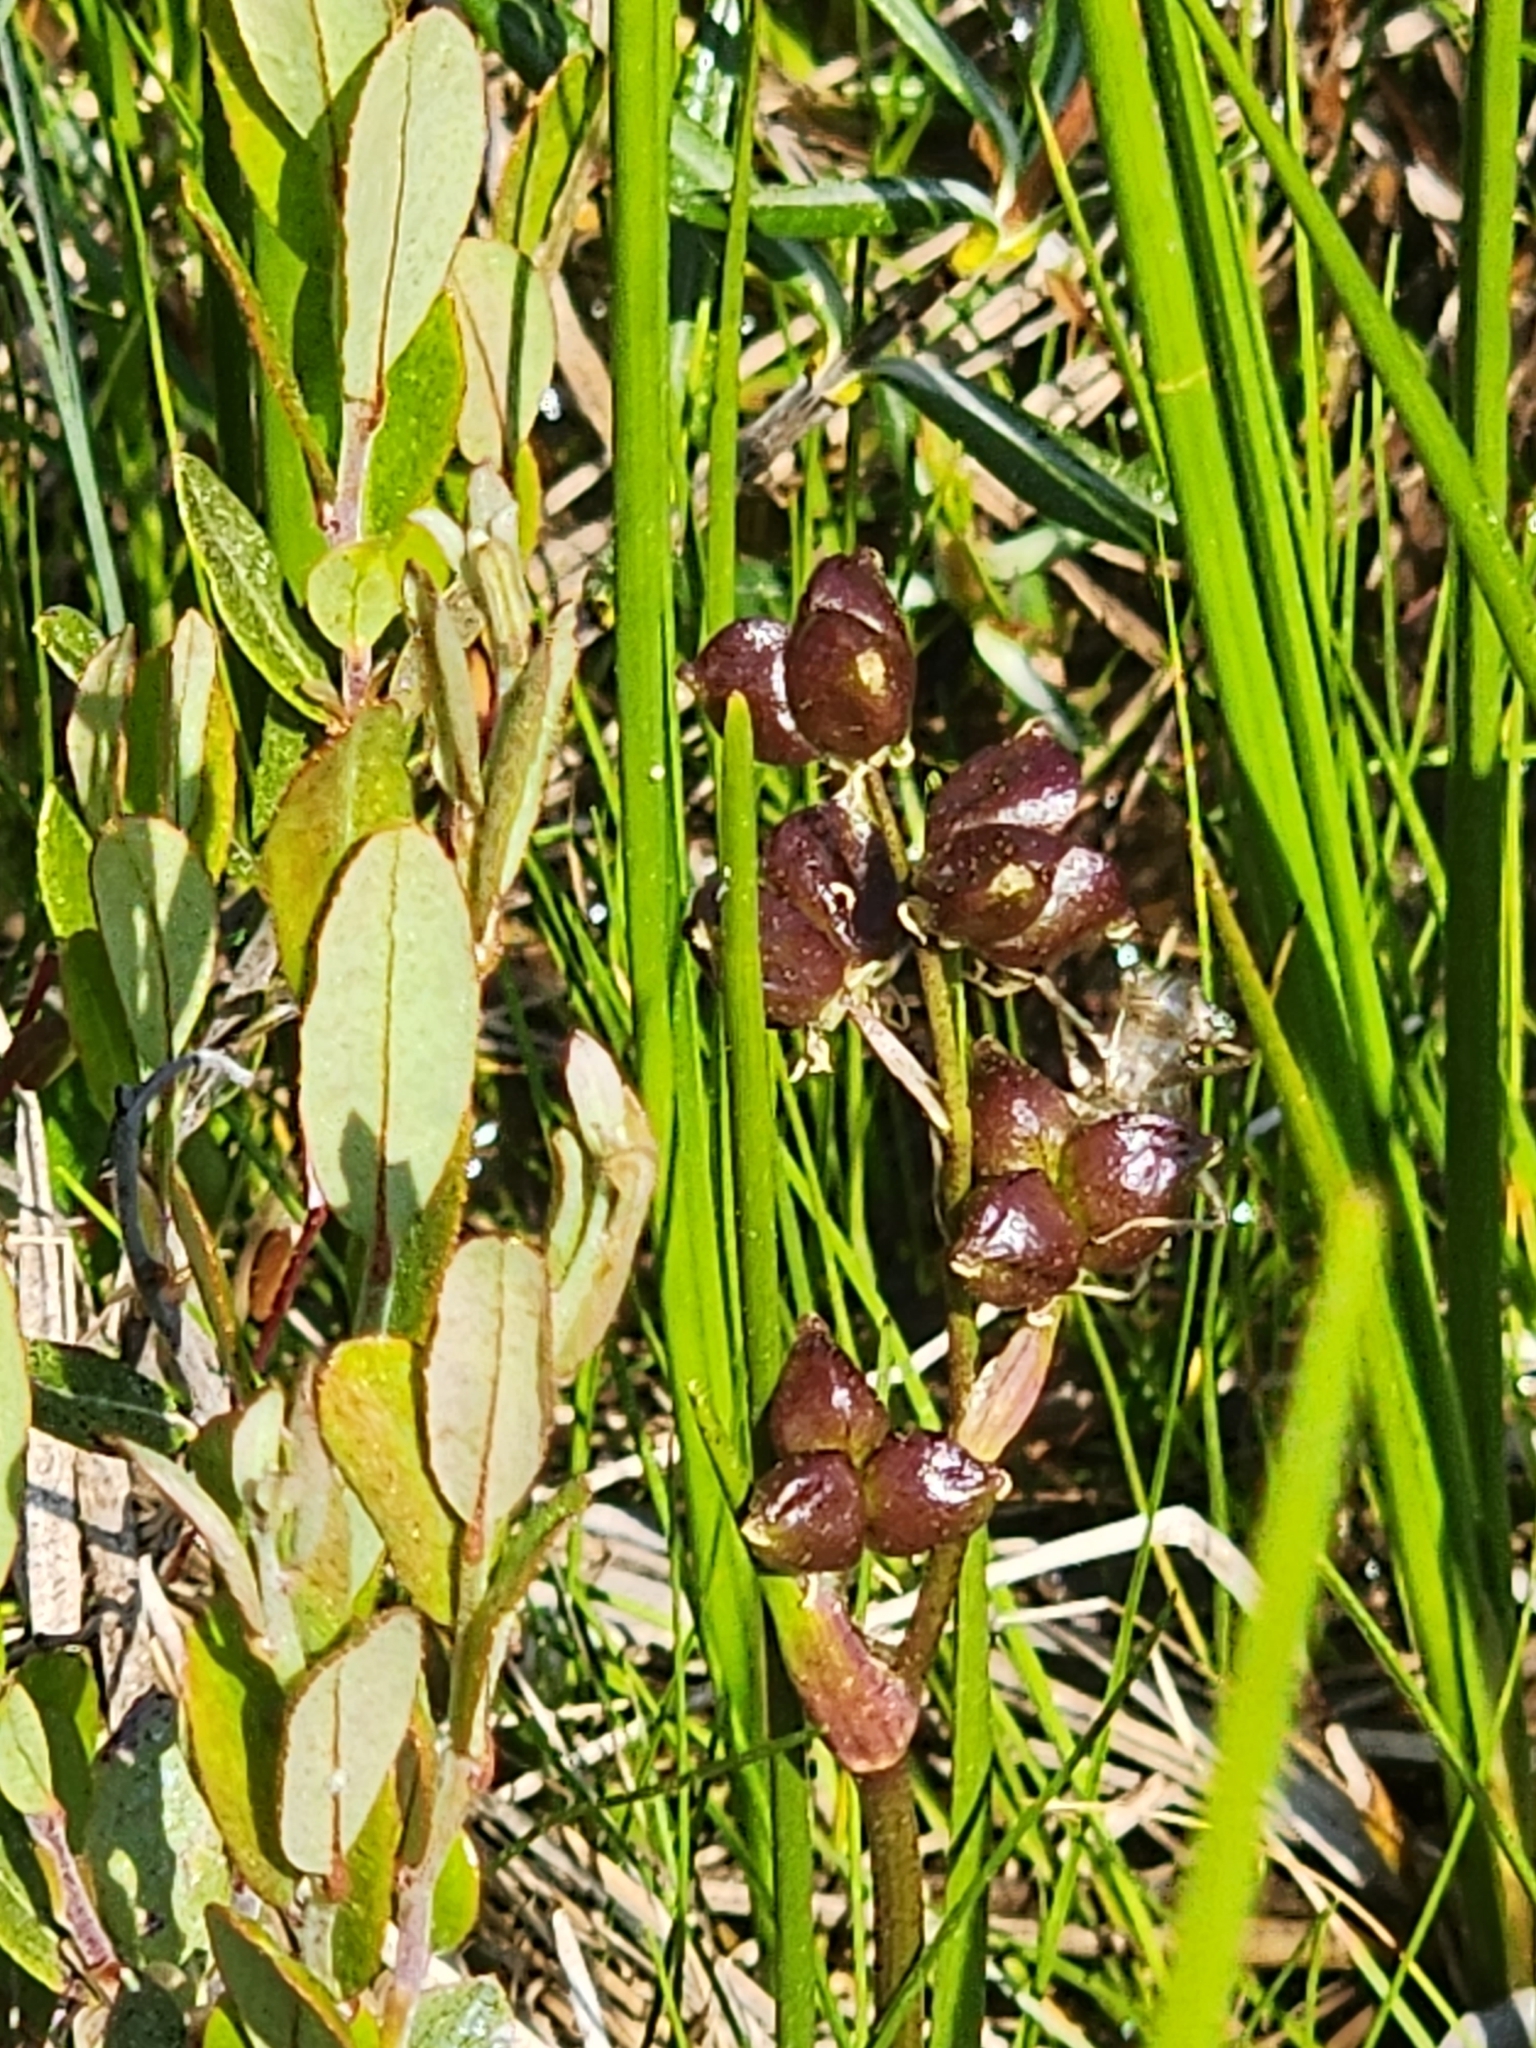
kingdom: Plantae
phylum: Tracheophyta
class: Liliopsida
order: Alismatales
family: Scheuchzeriaceae
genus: Scheuchzeria
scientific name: Scheuchzeria palustris
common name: Rannoch-rush
